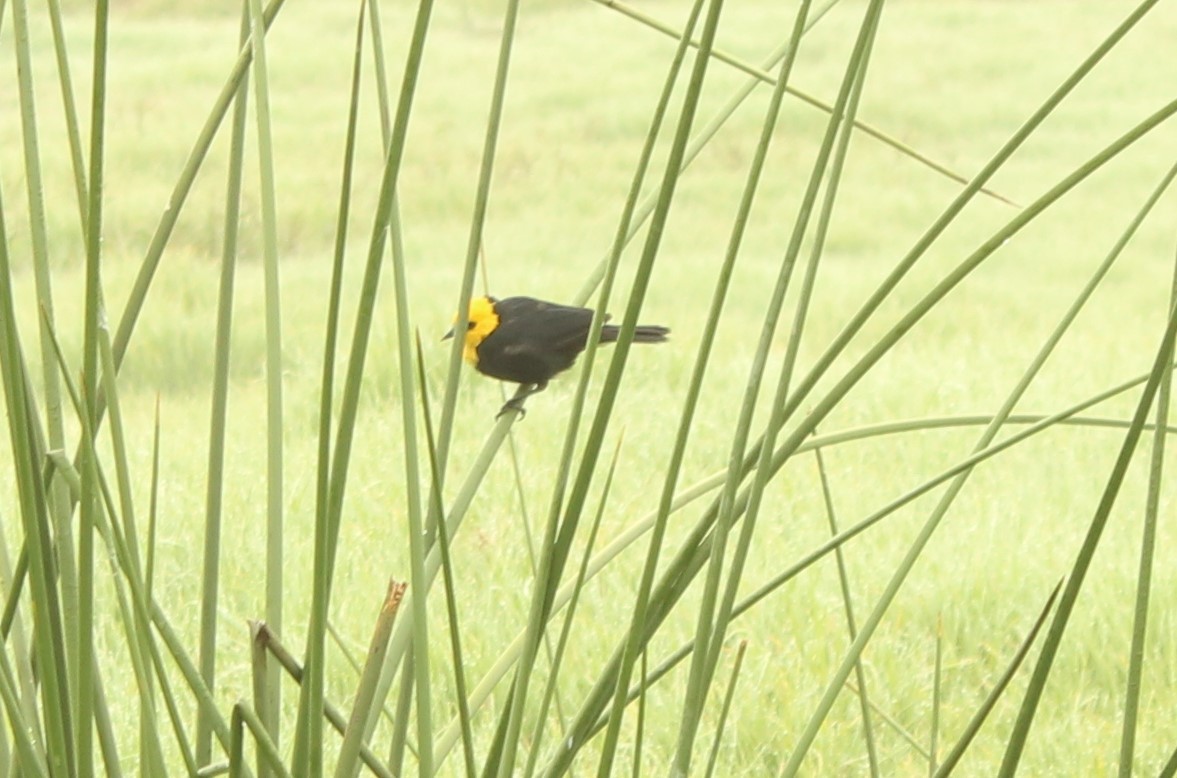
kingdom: Animalia
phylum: Chordata
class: Aves
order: Passeriformes
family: Icteridae
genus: Chrysomus
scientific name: Chrysomus icterocephalus
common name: Yellow-hooded blackbird
